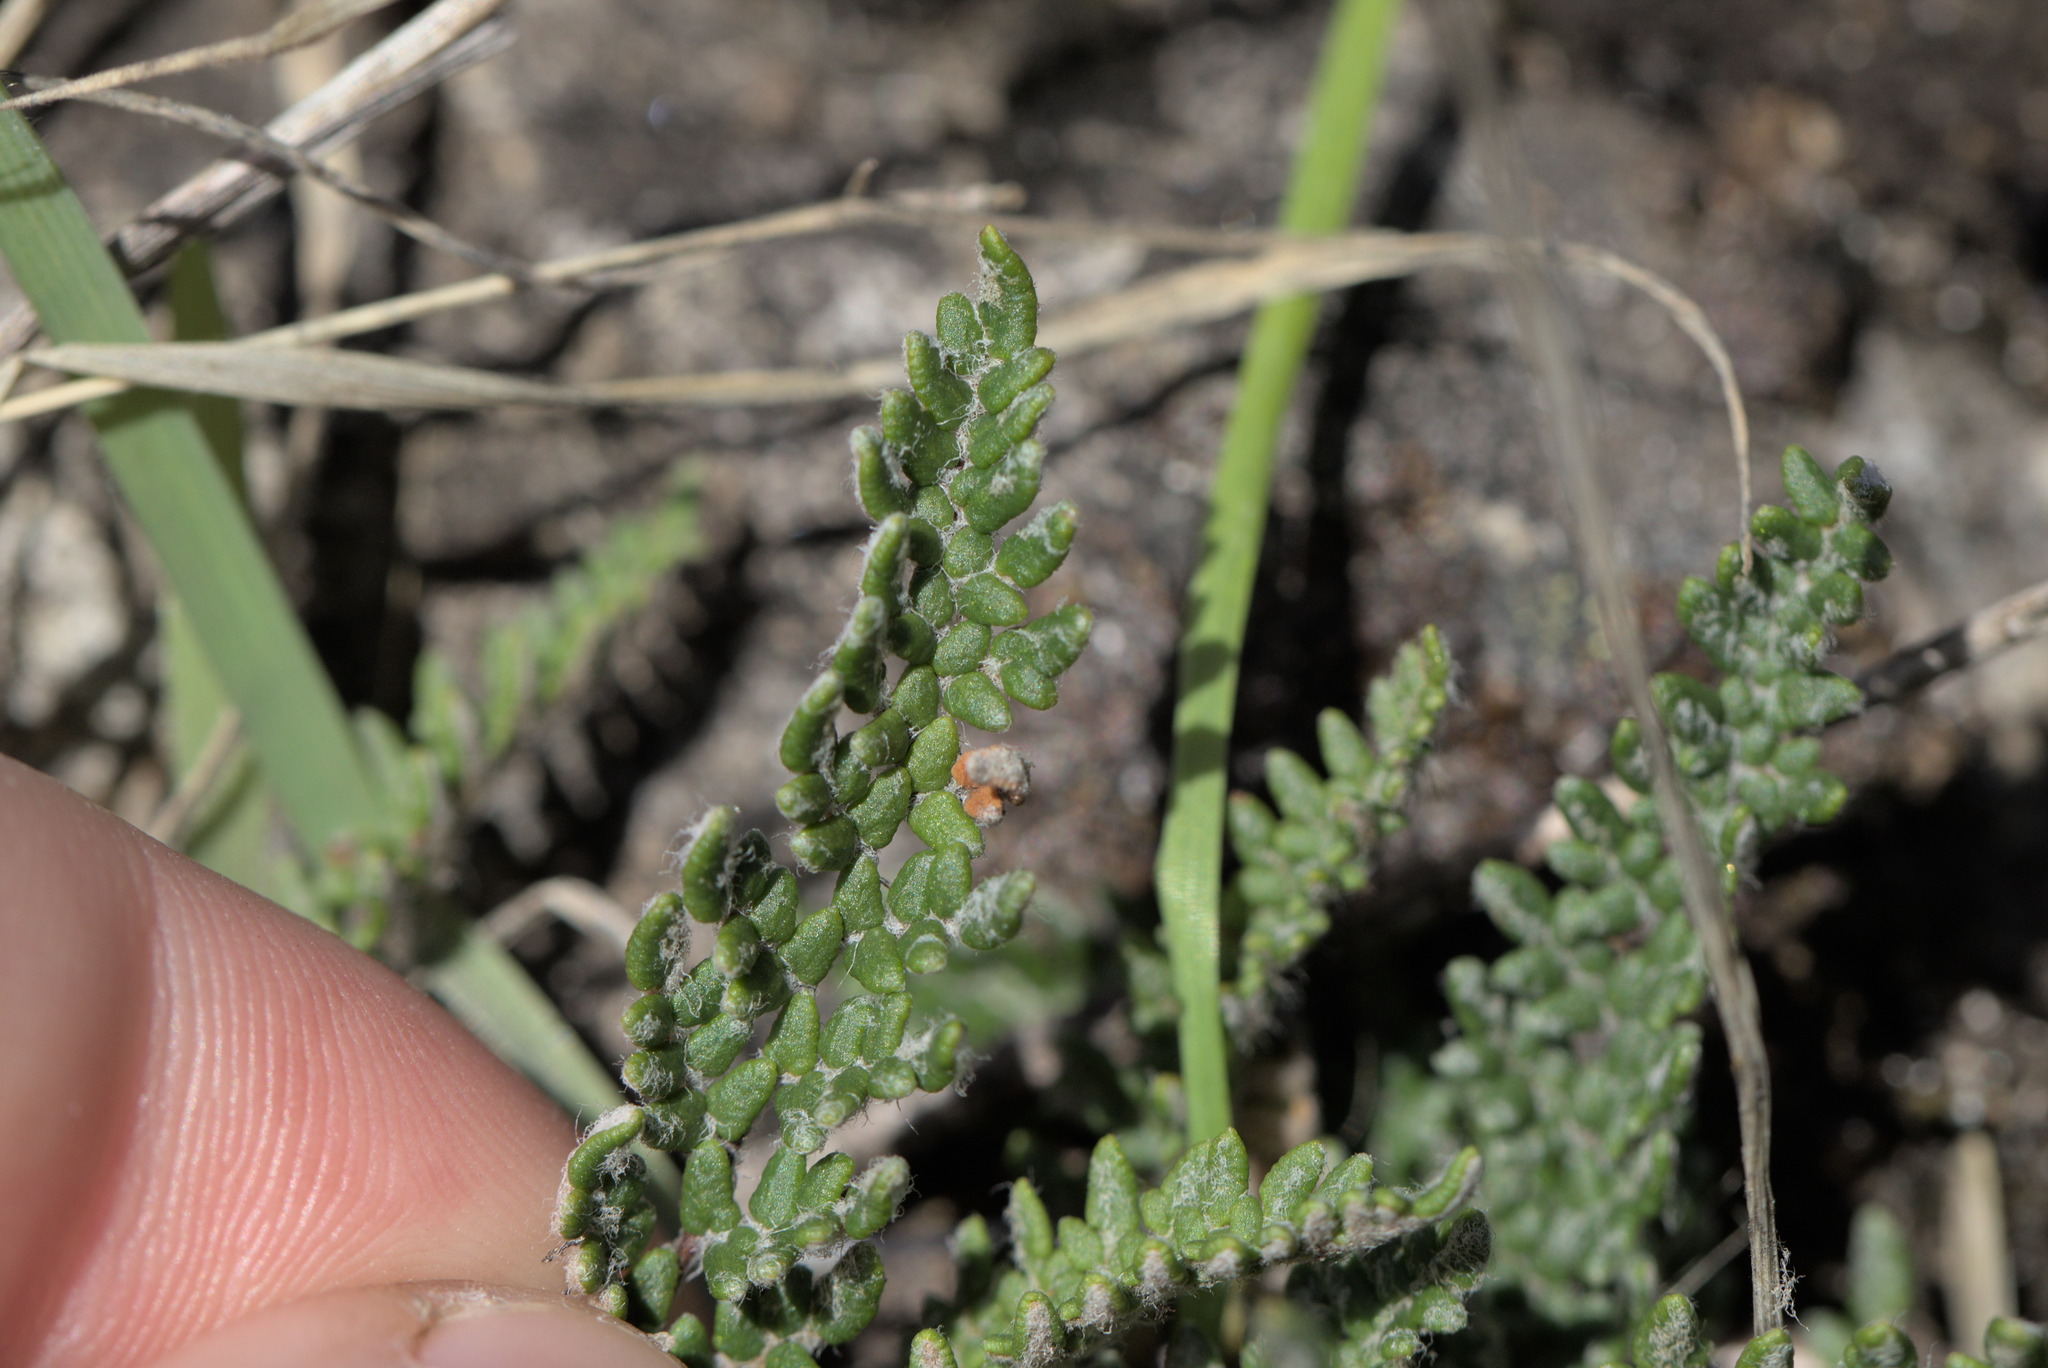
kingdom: Plantae
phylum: Tracheophyta
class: Polypodiopsida
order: Polypodiales
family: Pteridaceae
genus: Myriopteris
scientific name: Myriopteris gracillima
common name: Lace fern
